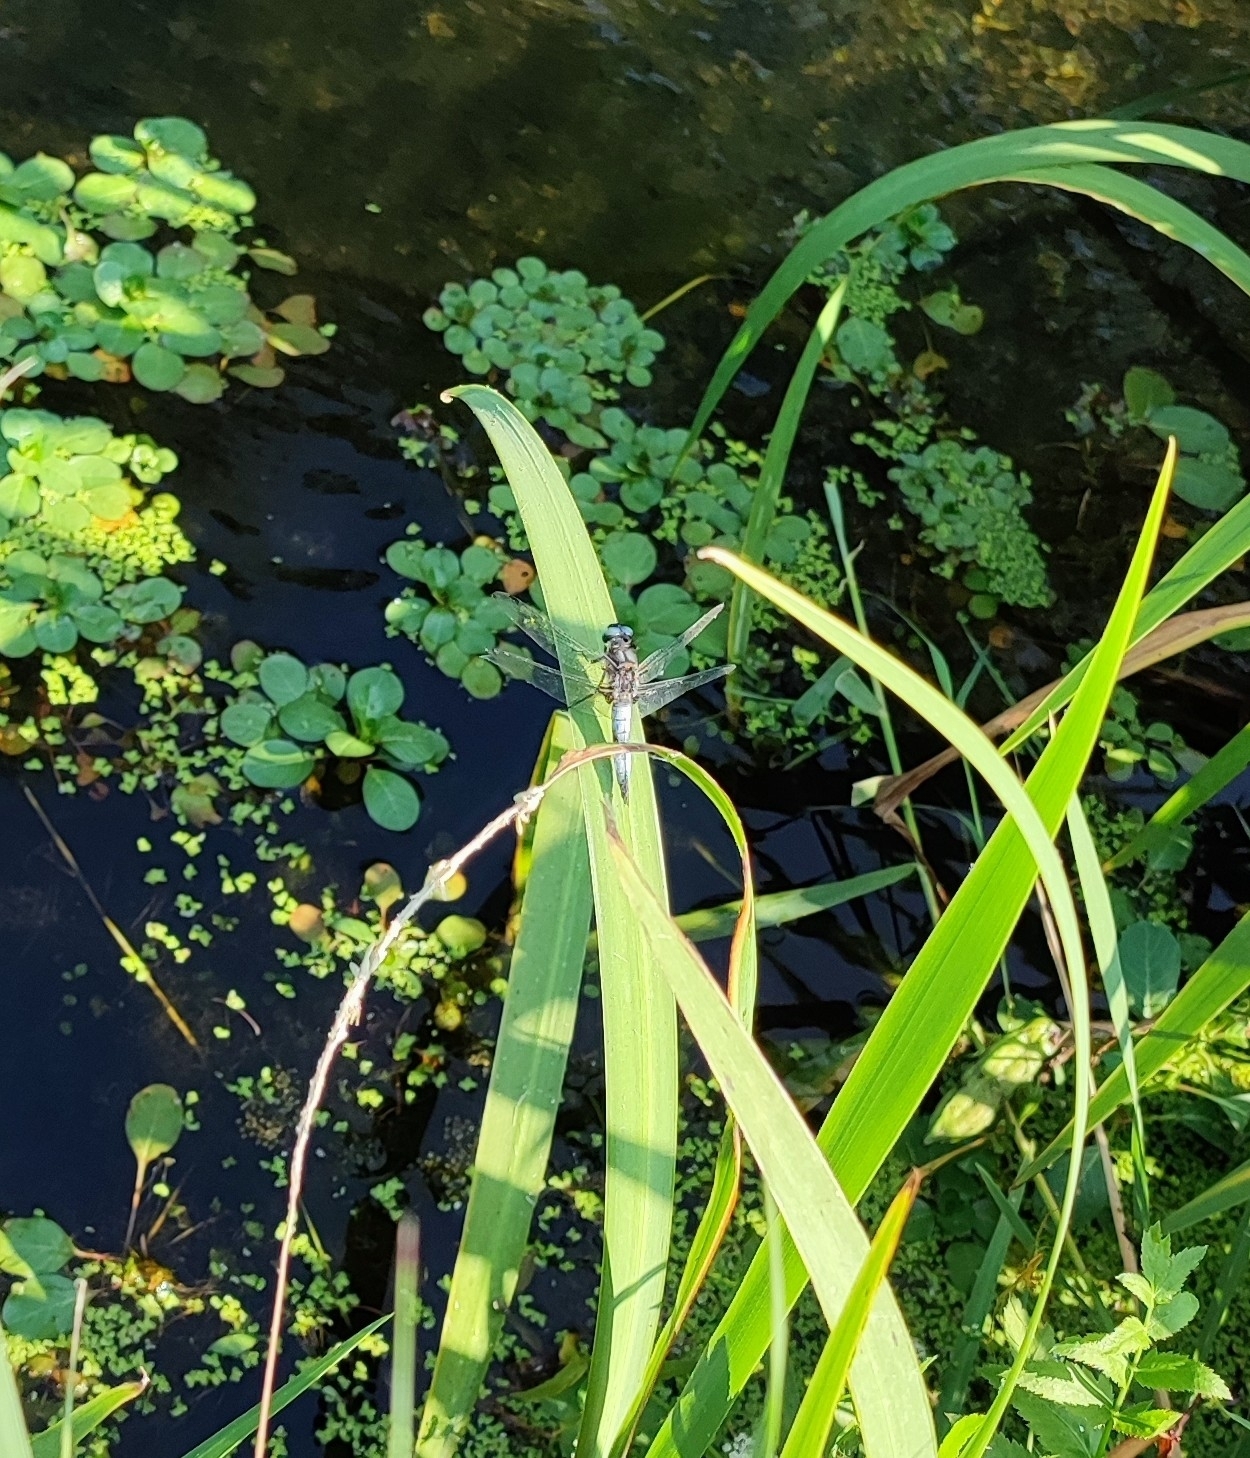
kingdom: Animalia
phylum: Arthropoda
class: Insecta
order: Odonata
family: Libellulidae
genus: Libellula
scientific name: Libellula fulva
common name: Blue chaser
